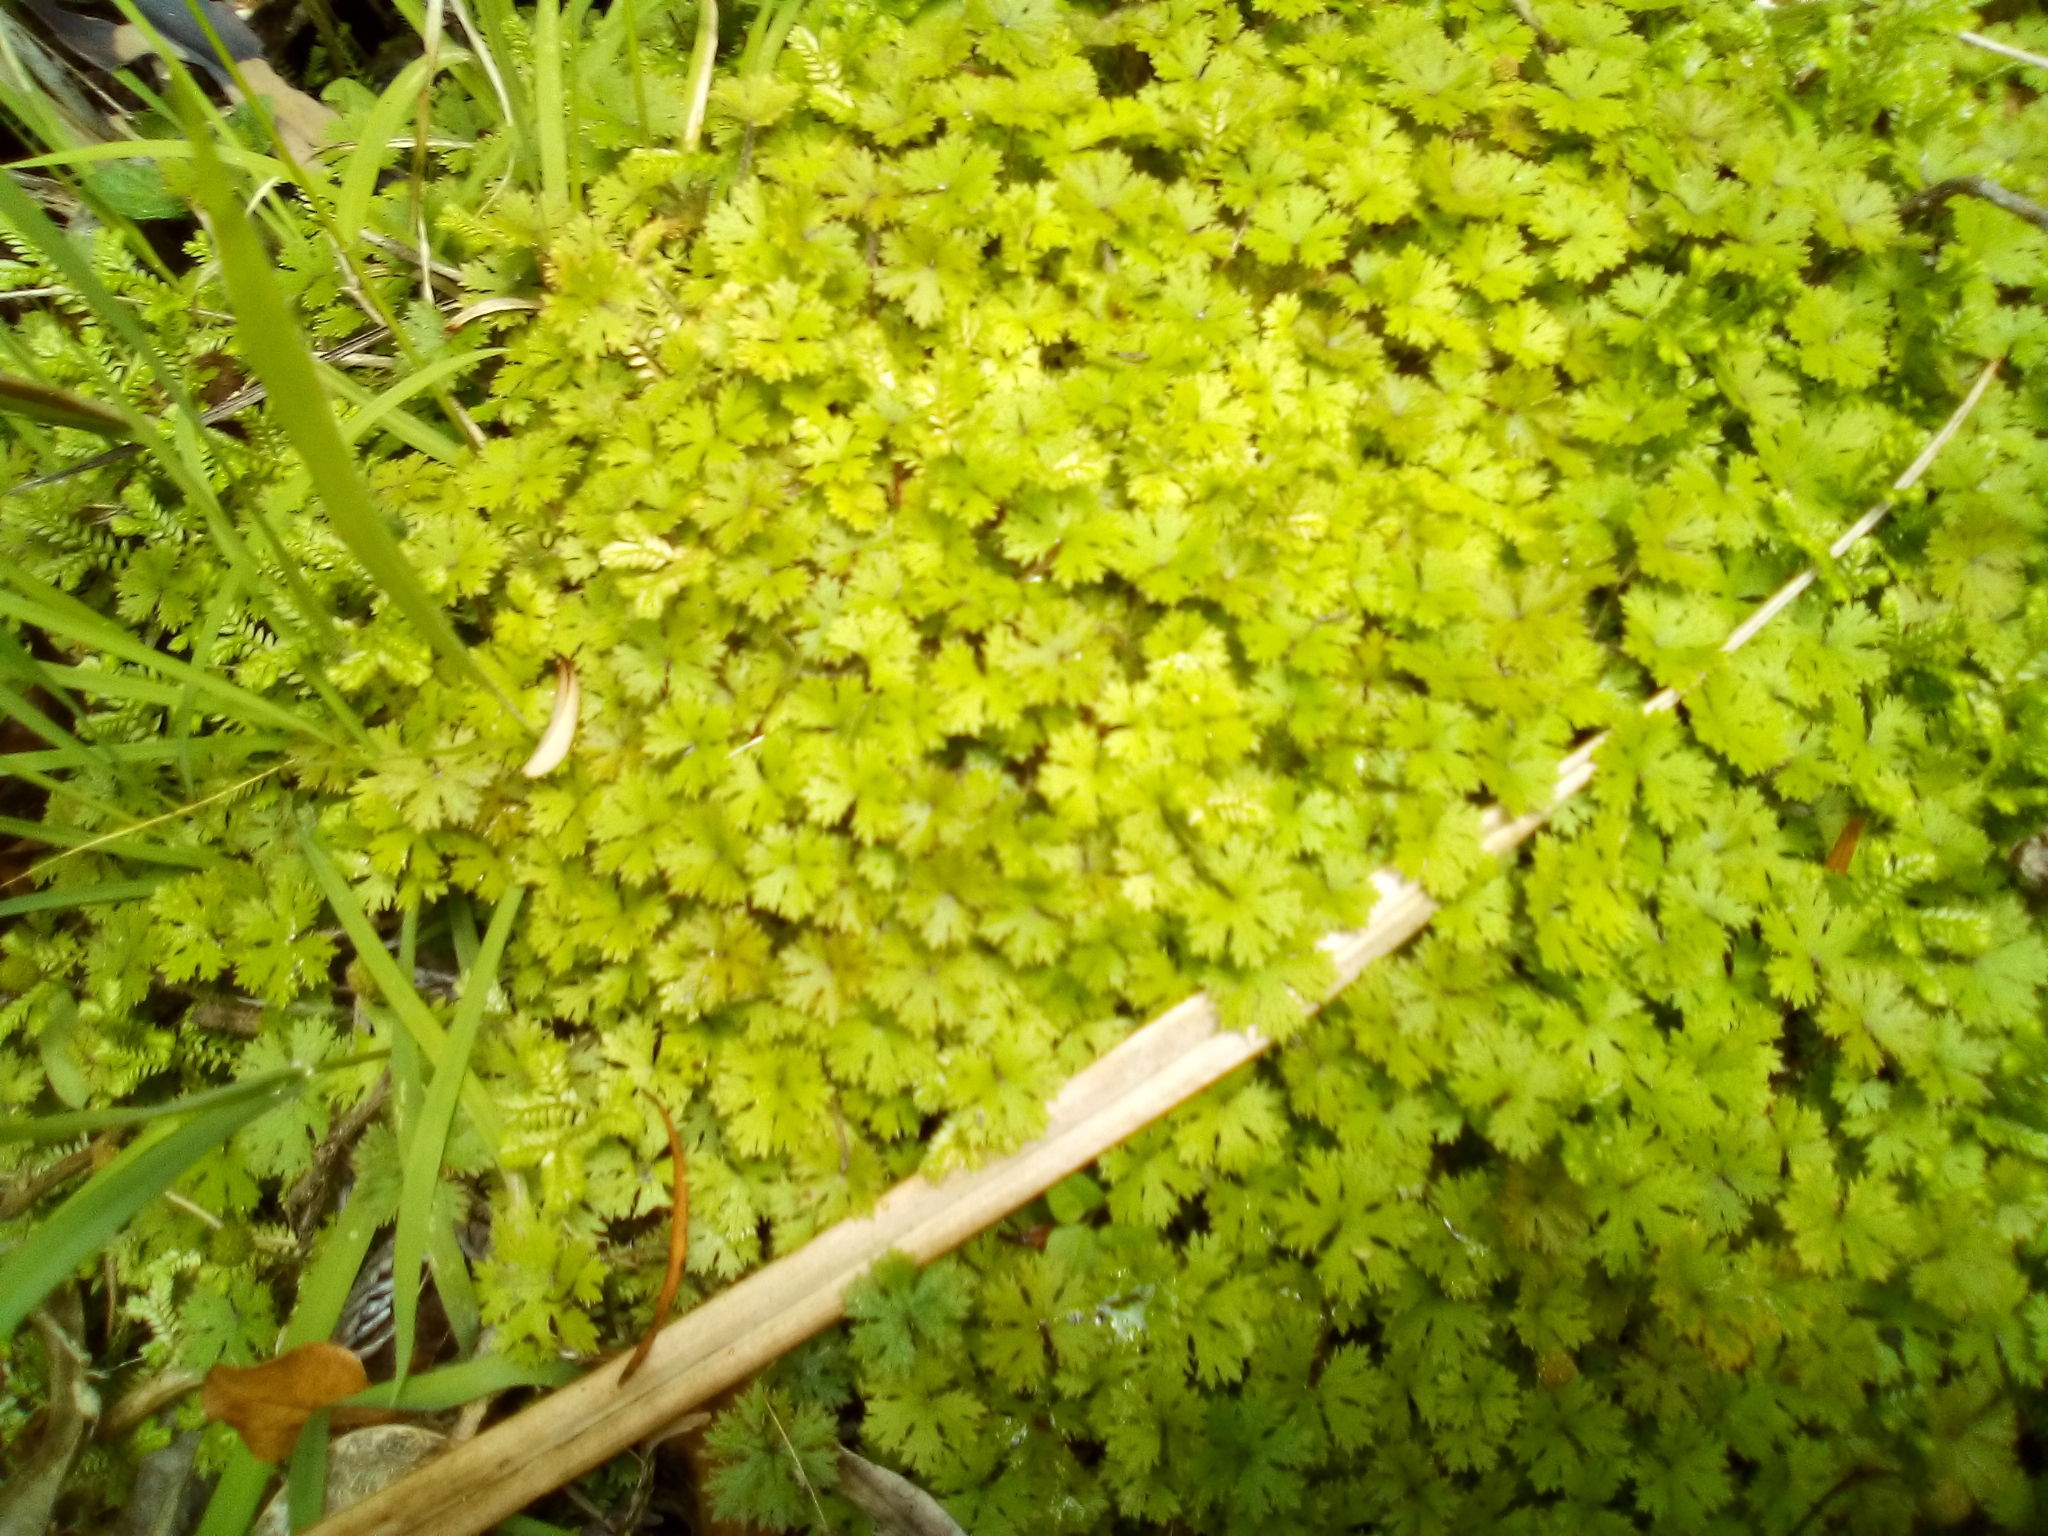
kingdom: Plantae
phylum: Tracheophyta
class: Magnoliopsida
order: Apiales
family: Araliaceae
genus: Hydrocotyle
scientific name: Hydrocotyle dissecta
